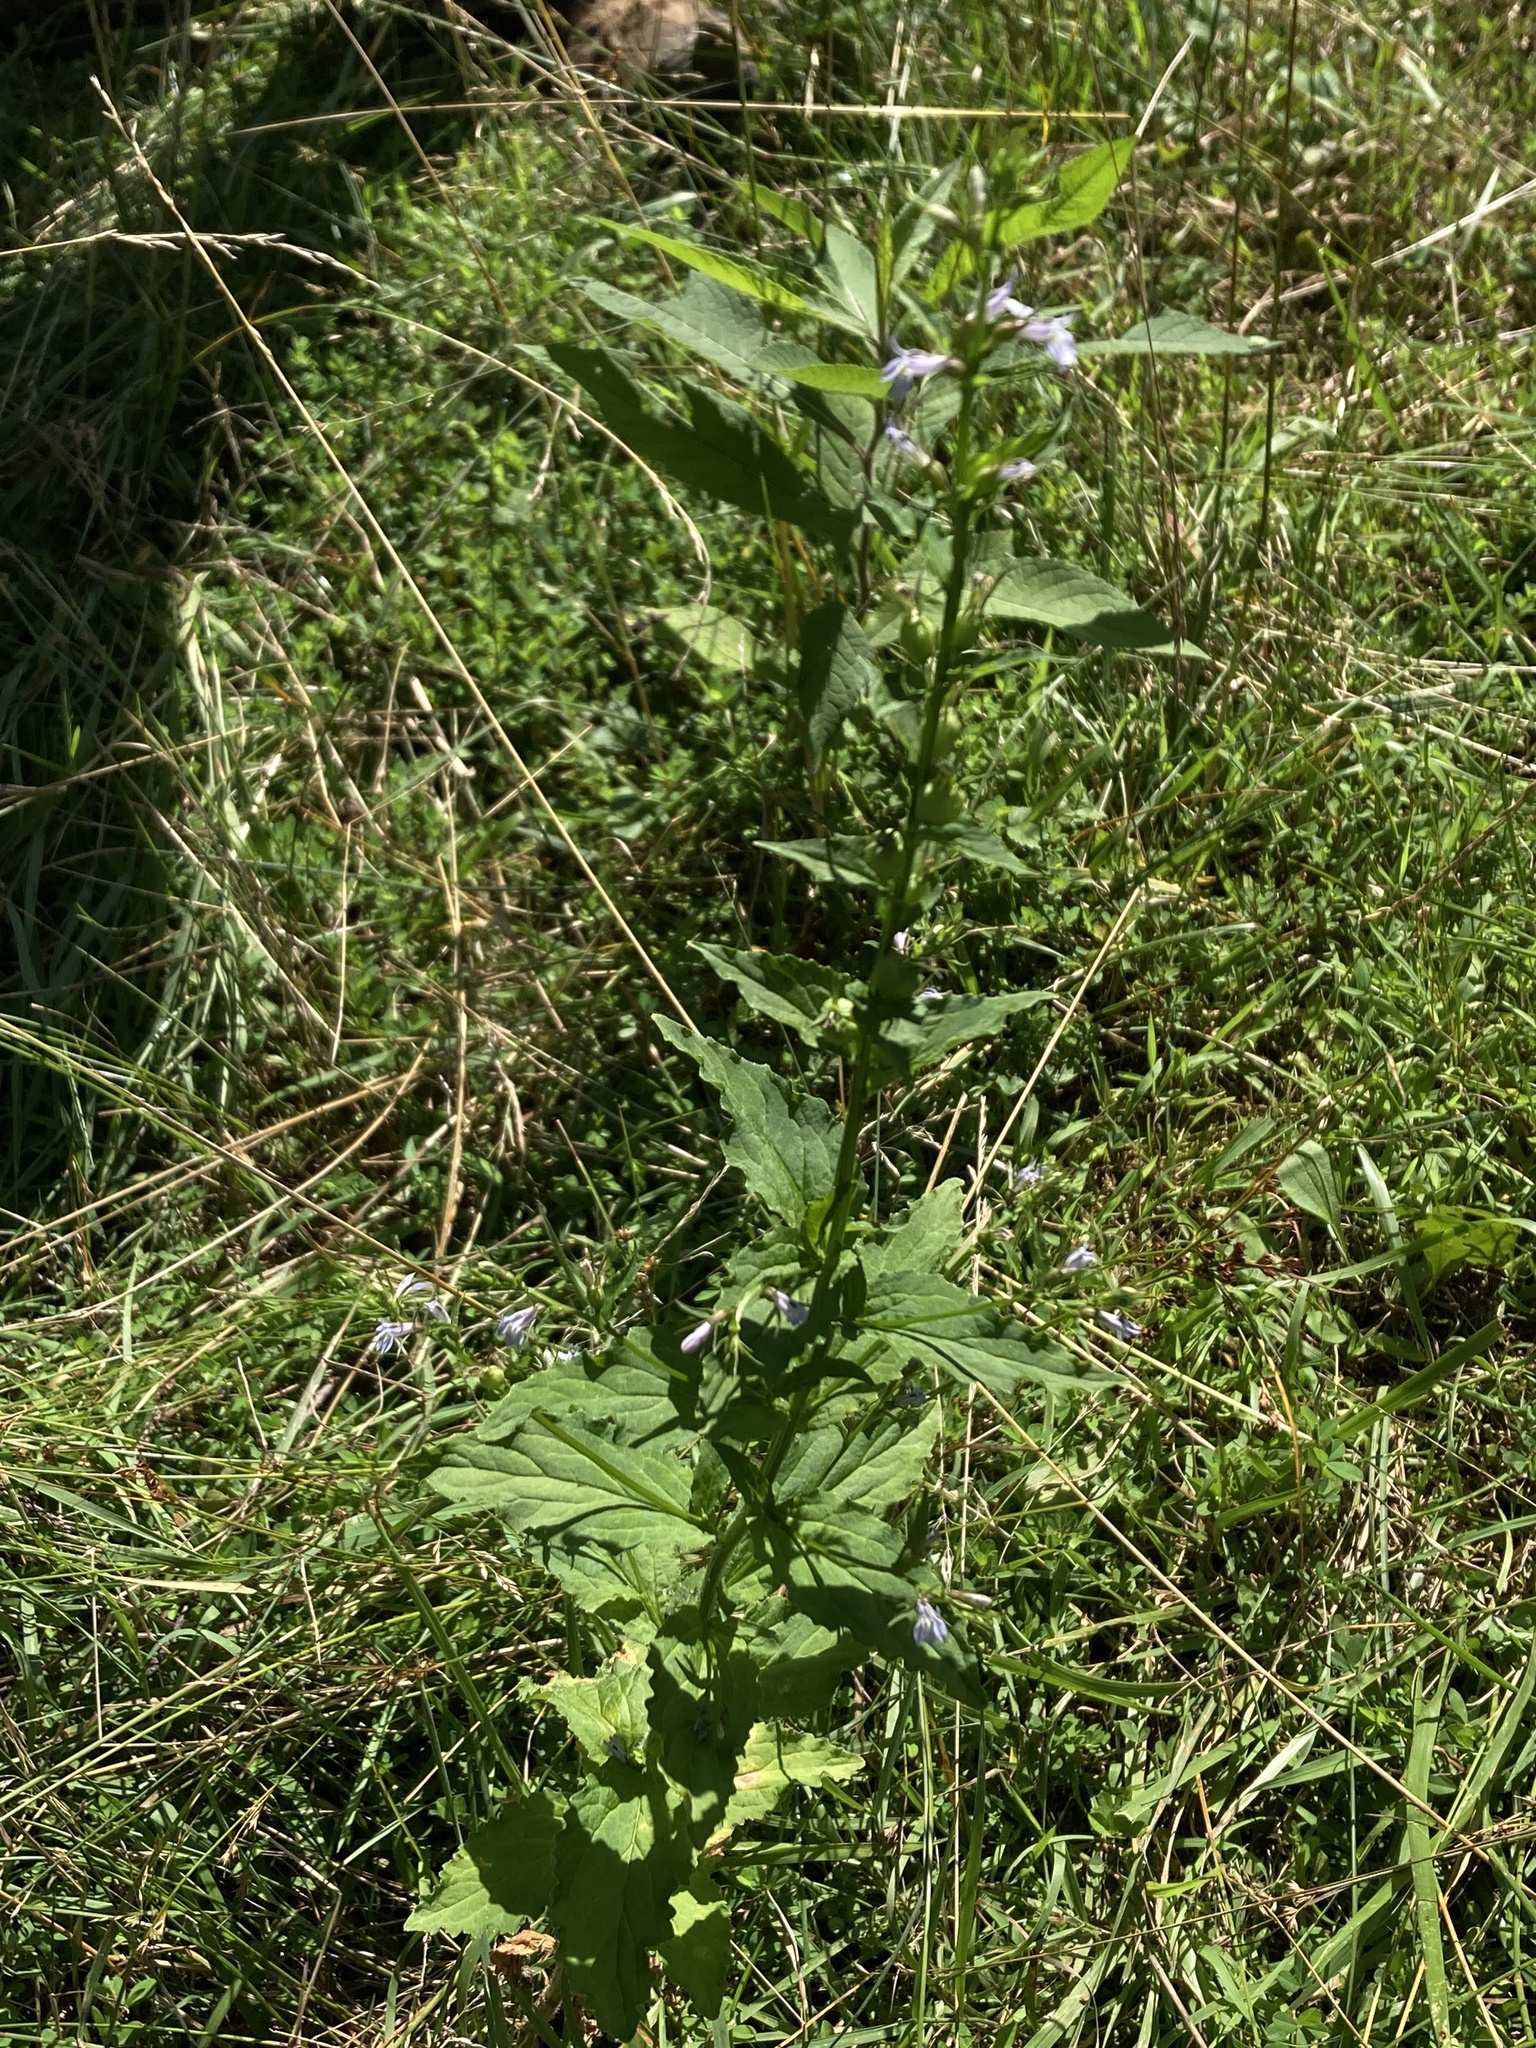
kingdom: Plantae
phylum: Tracheophyta
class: Magnoliopsida
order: Asterales
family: Campanulaceae
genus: Lobelia
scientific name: Lobelia inflata
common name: Indian tobacco
